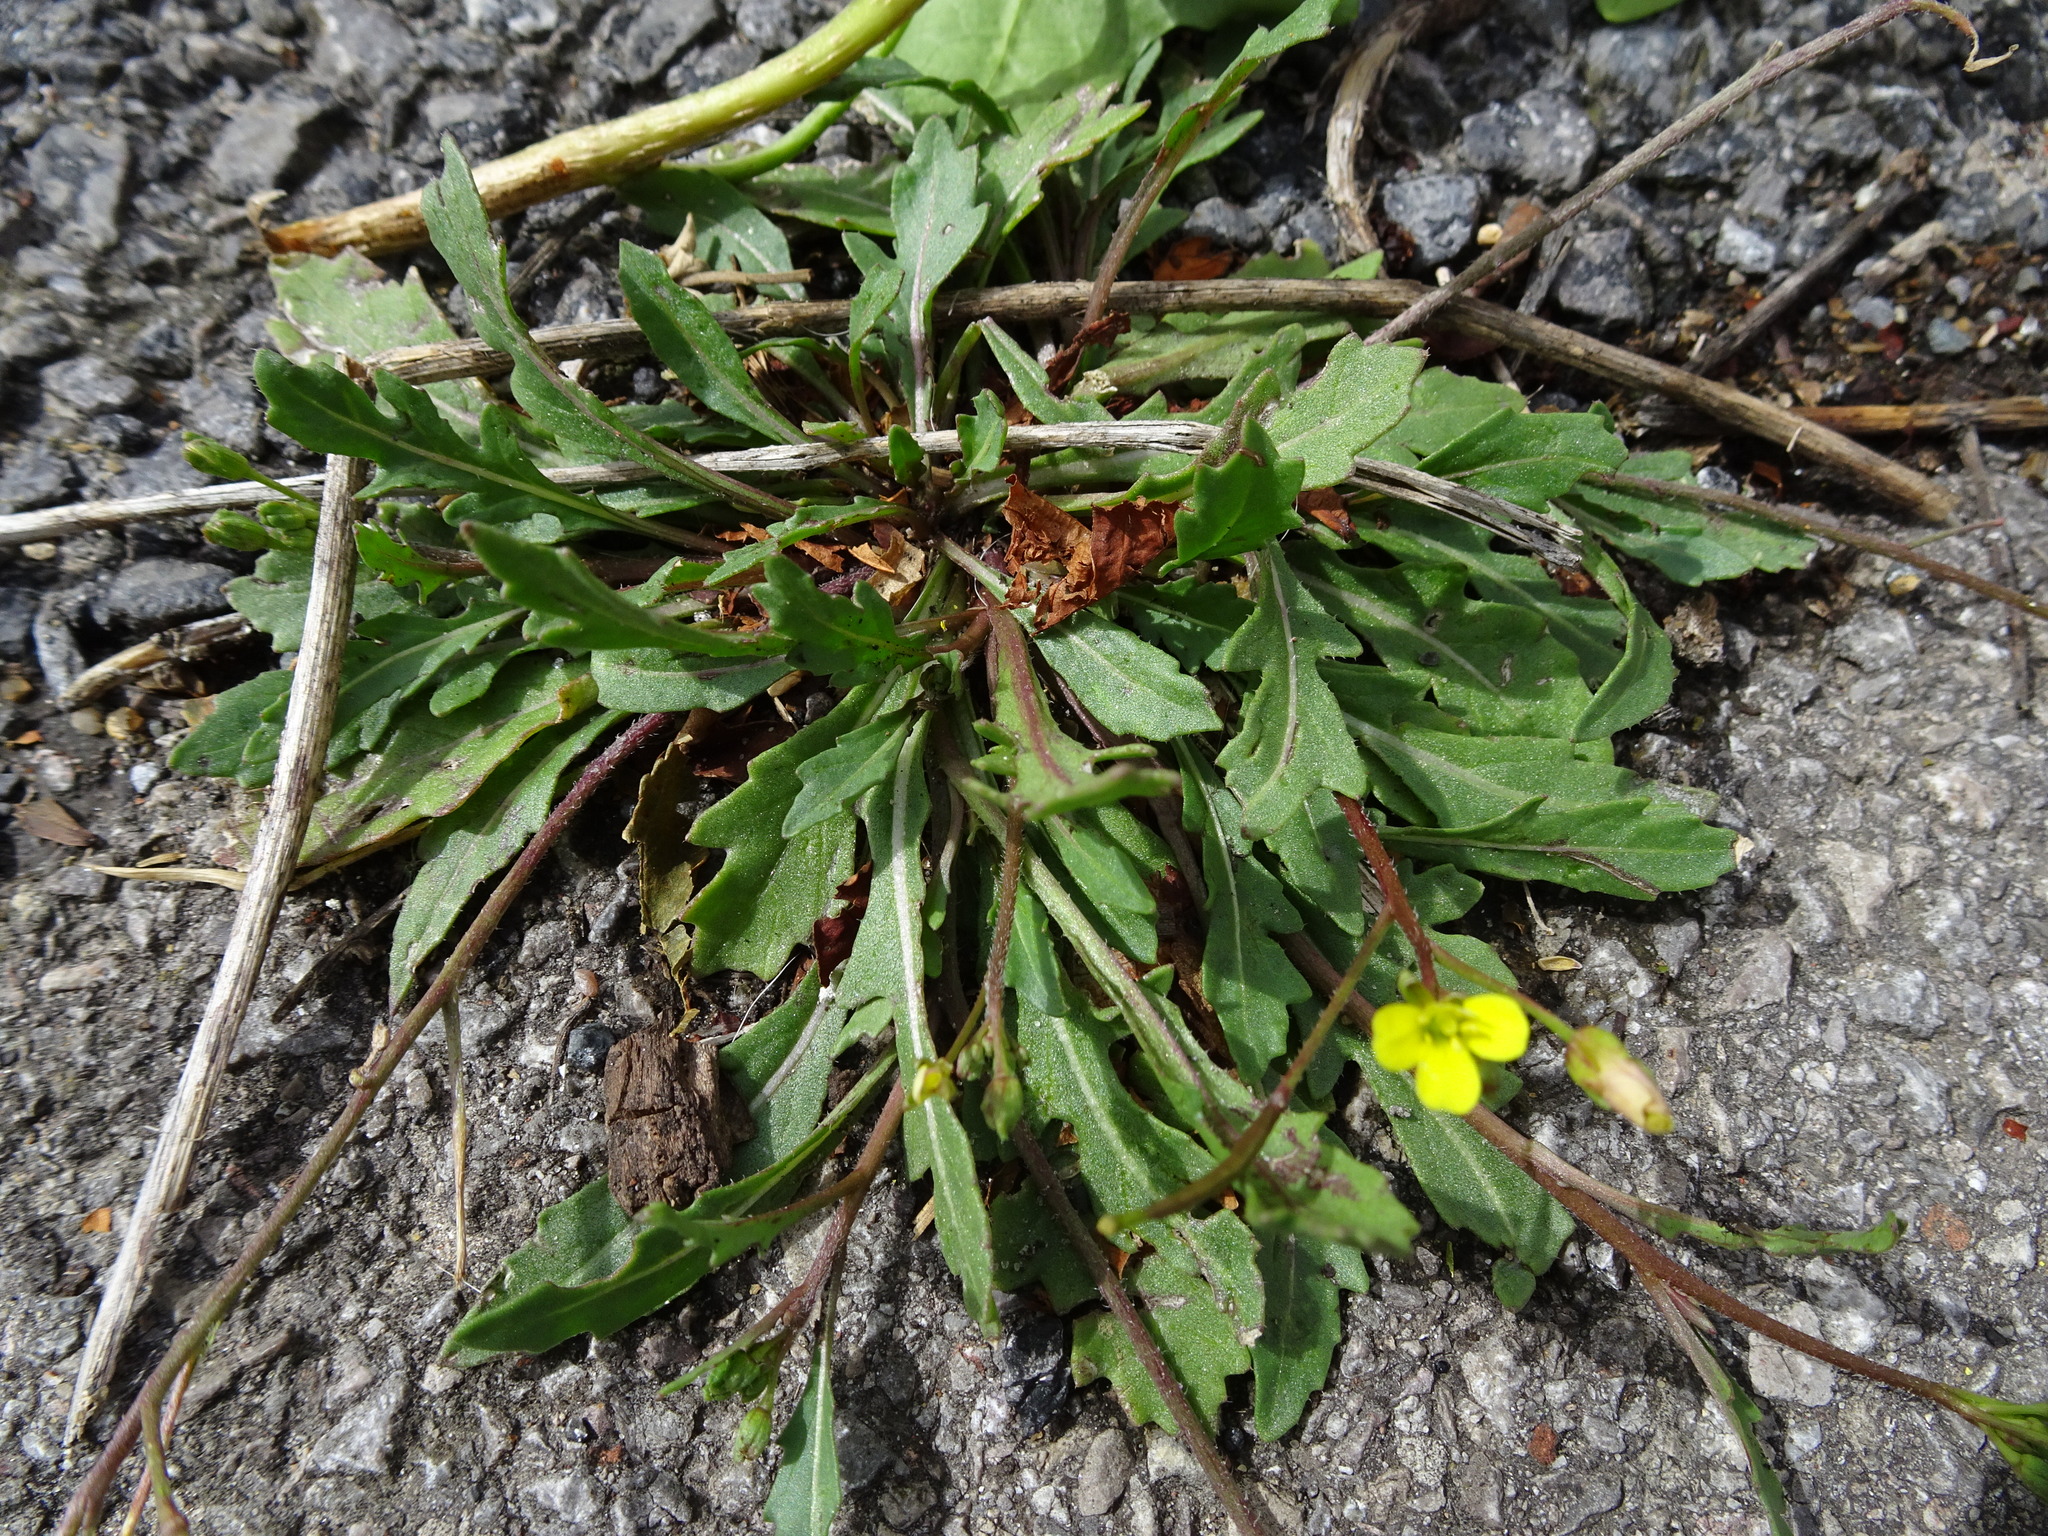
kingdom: Plantae
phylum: Tracheophyta
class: Magnoliopsida
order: Brassicales
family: Brassicaceae
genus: Diplotaxis
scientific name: Diplotaxis muralis
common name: Annual wall-rocket
